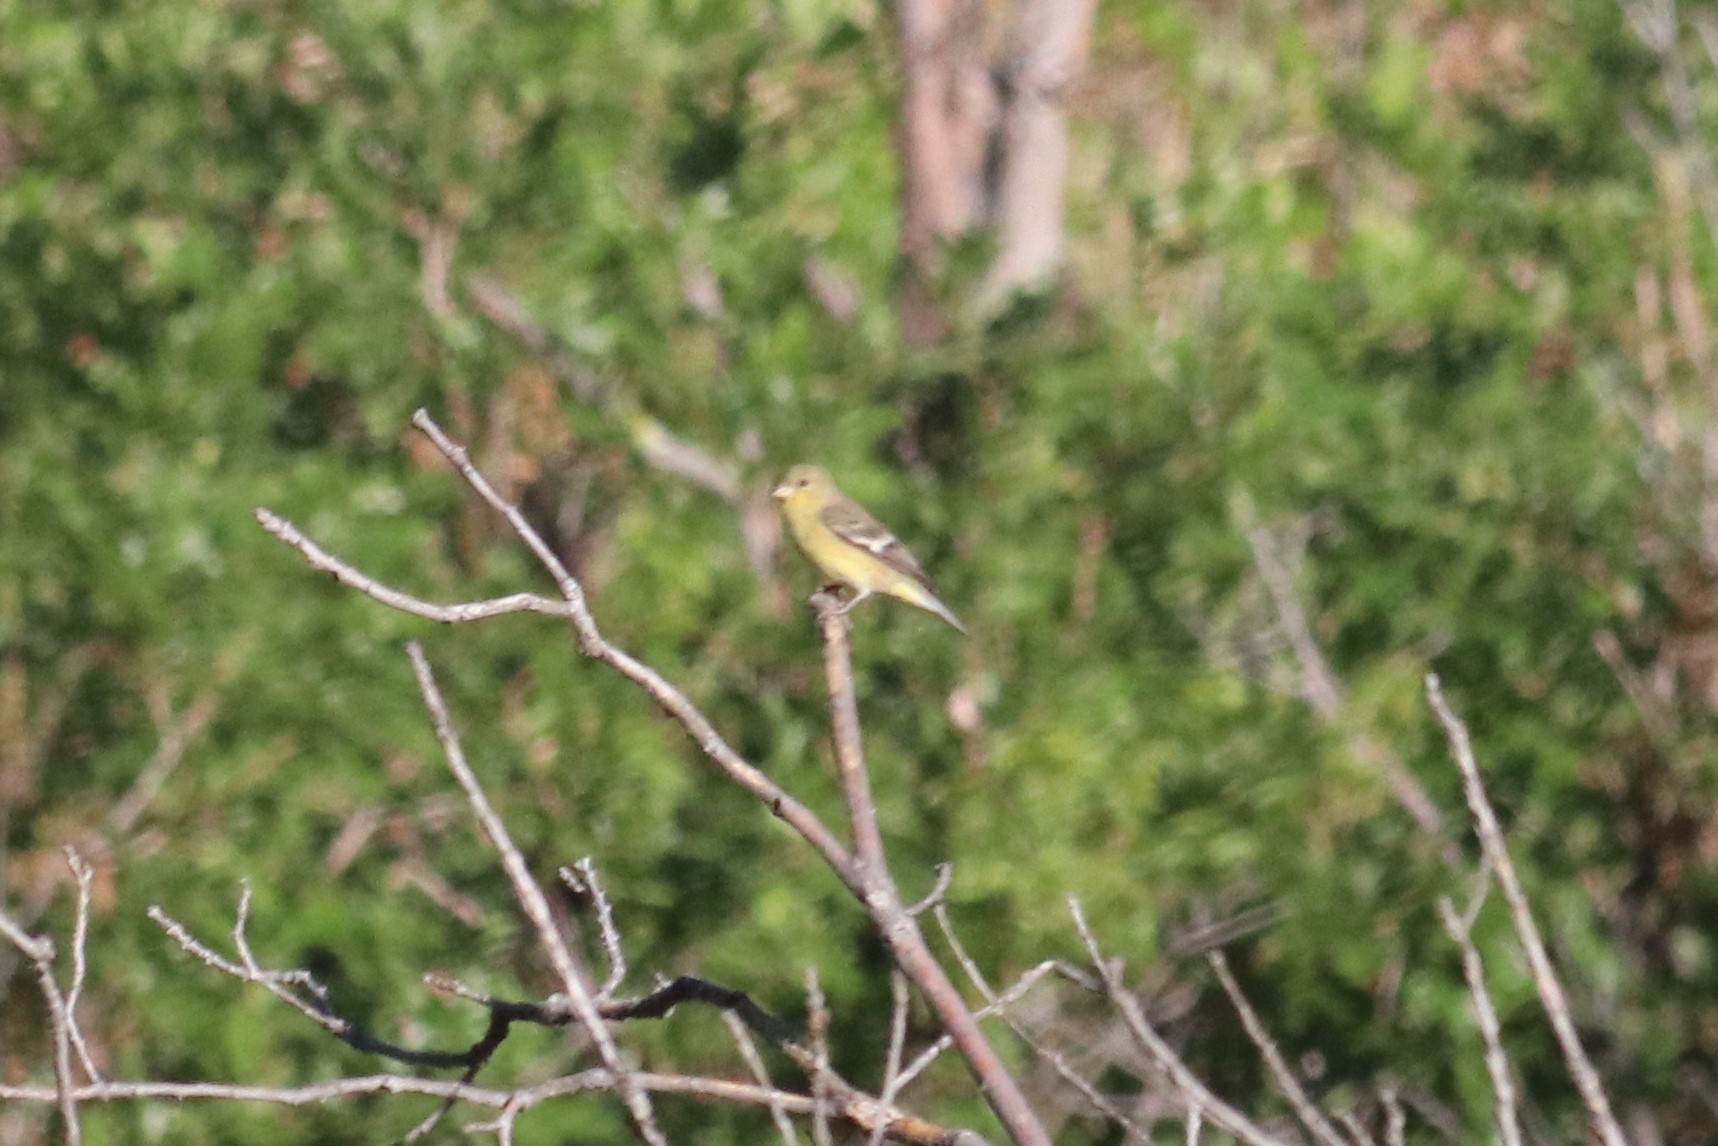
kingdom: Animalia
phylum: Chordata
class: Aves
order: Passeriformes
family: Fringillidae
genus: Spinus
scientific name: Spinus psaltria
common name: Lesser goldfinch
